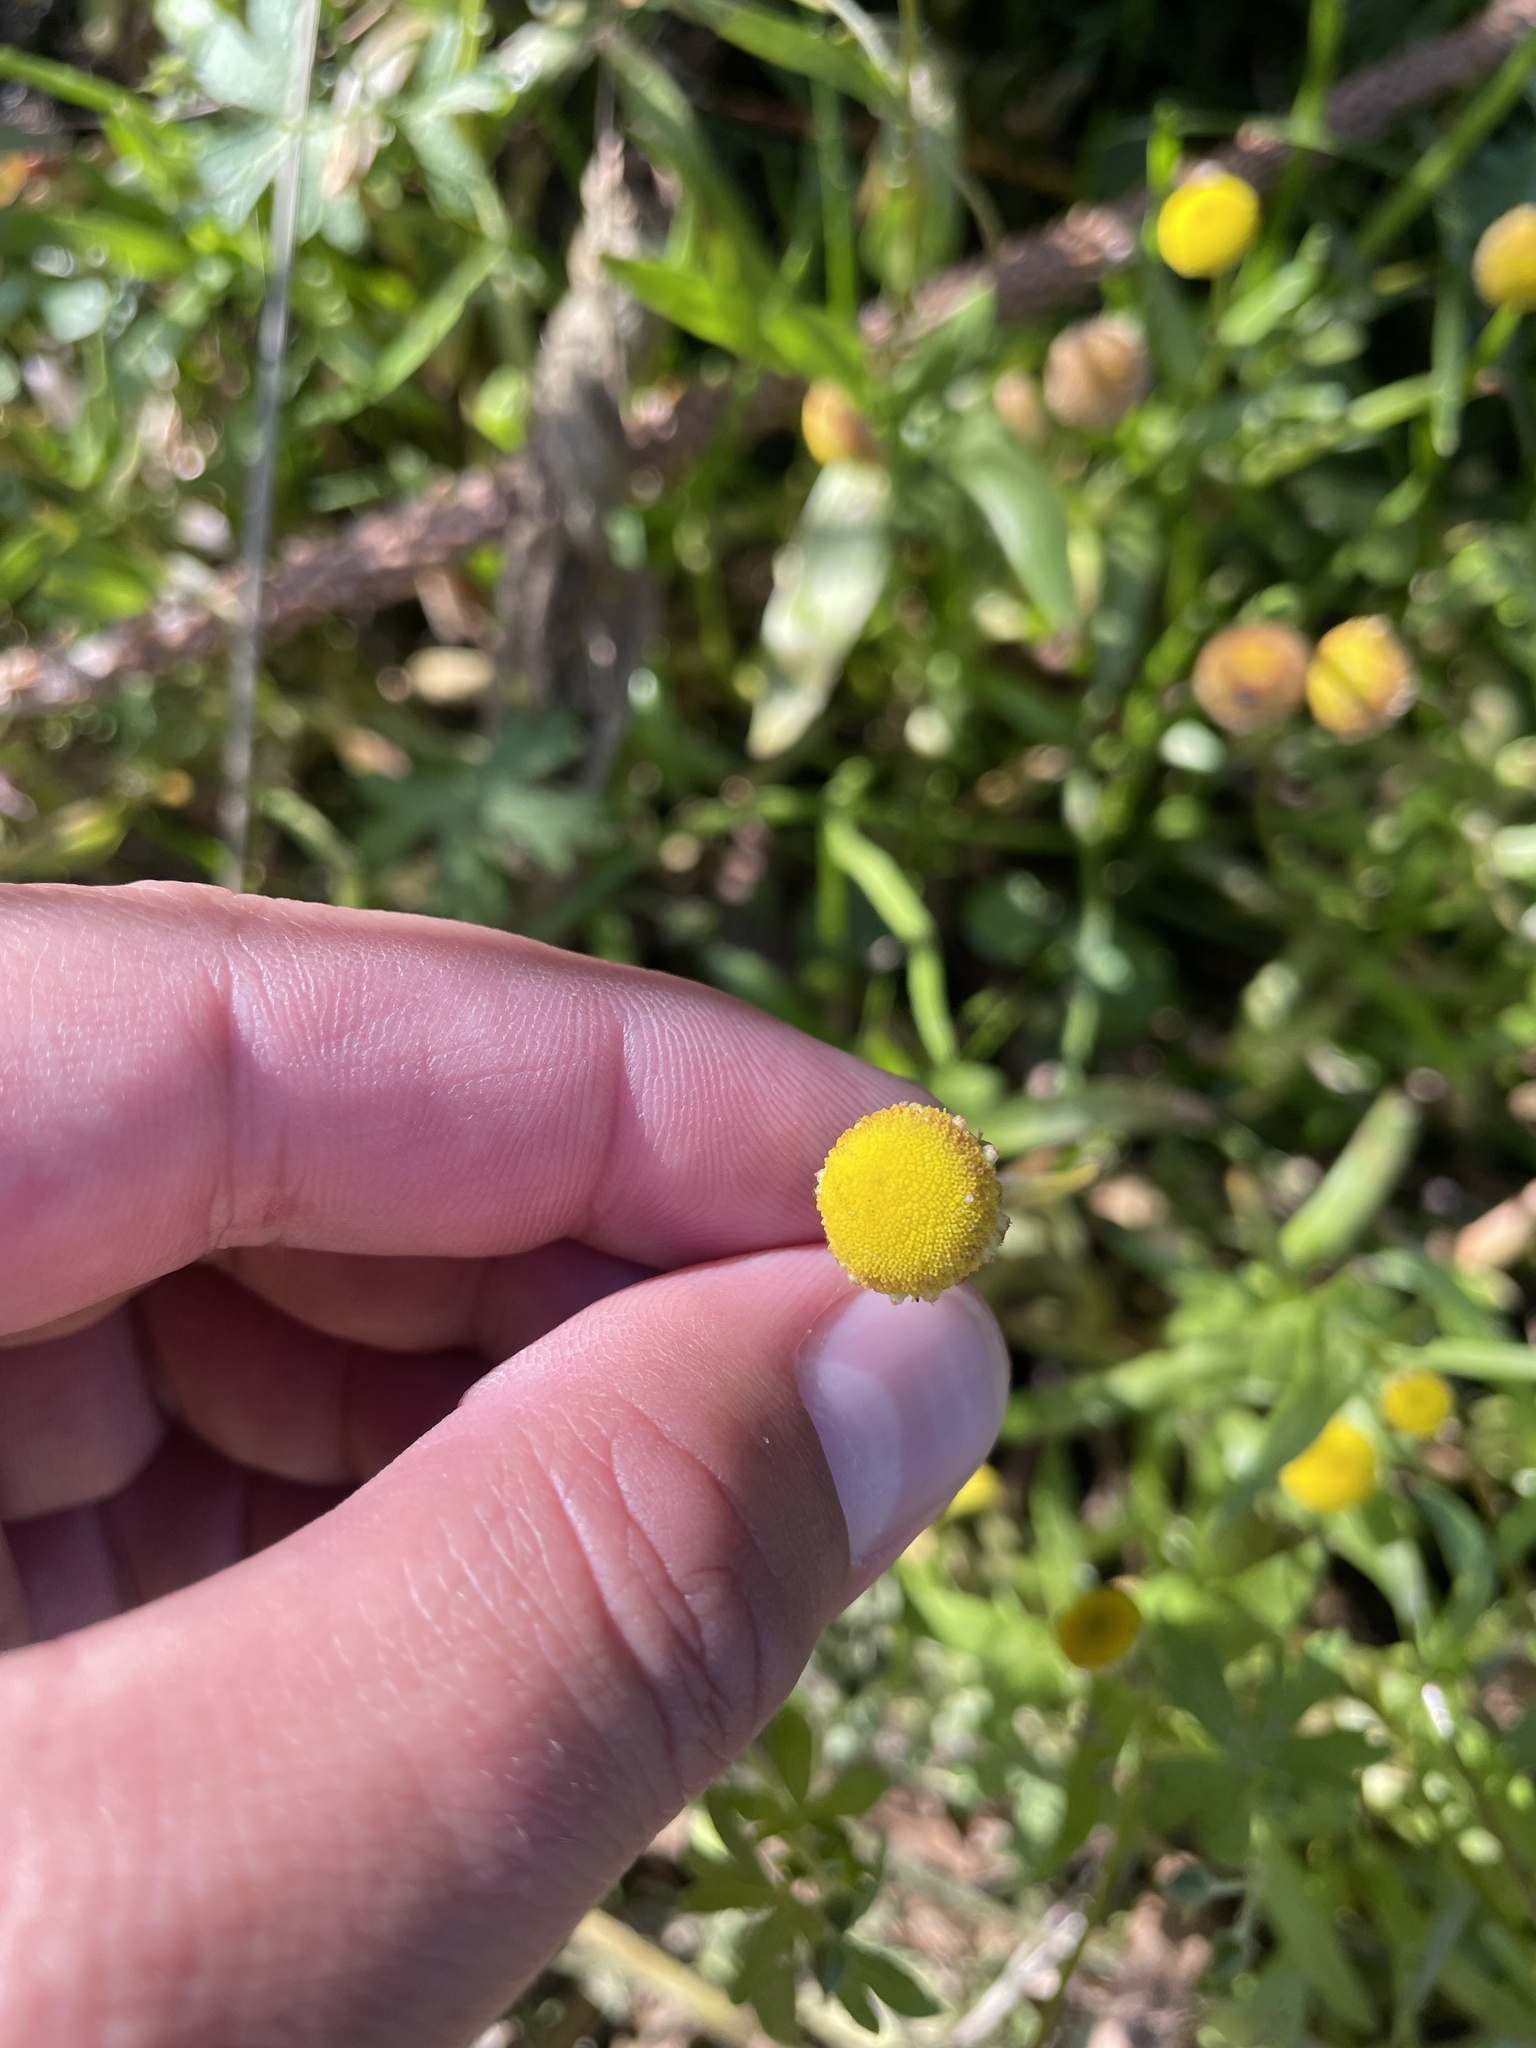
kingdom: Plantae
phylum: Tracheophyta
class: Magnoliopsida
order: Asterales
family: Asteraceae
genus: Cotula
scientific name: Cotula coronopifolia
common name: Buttonweed
